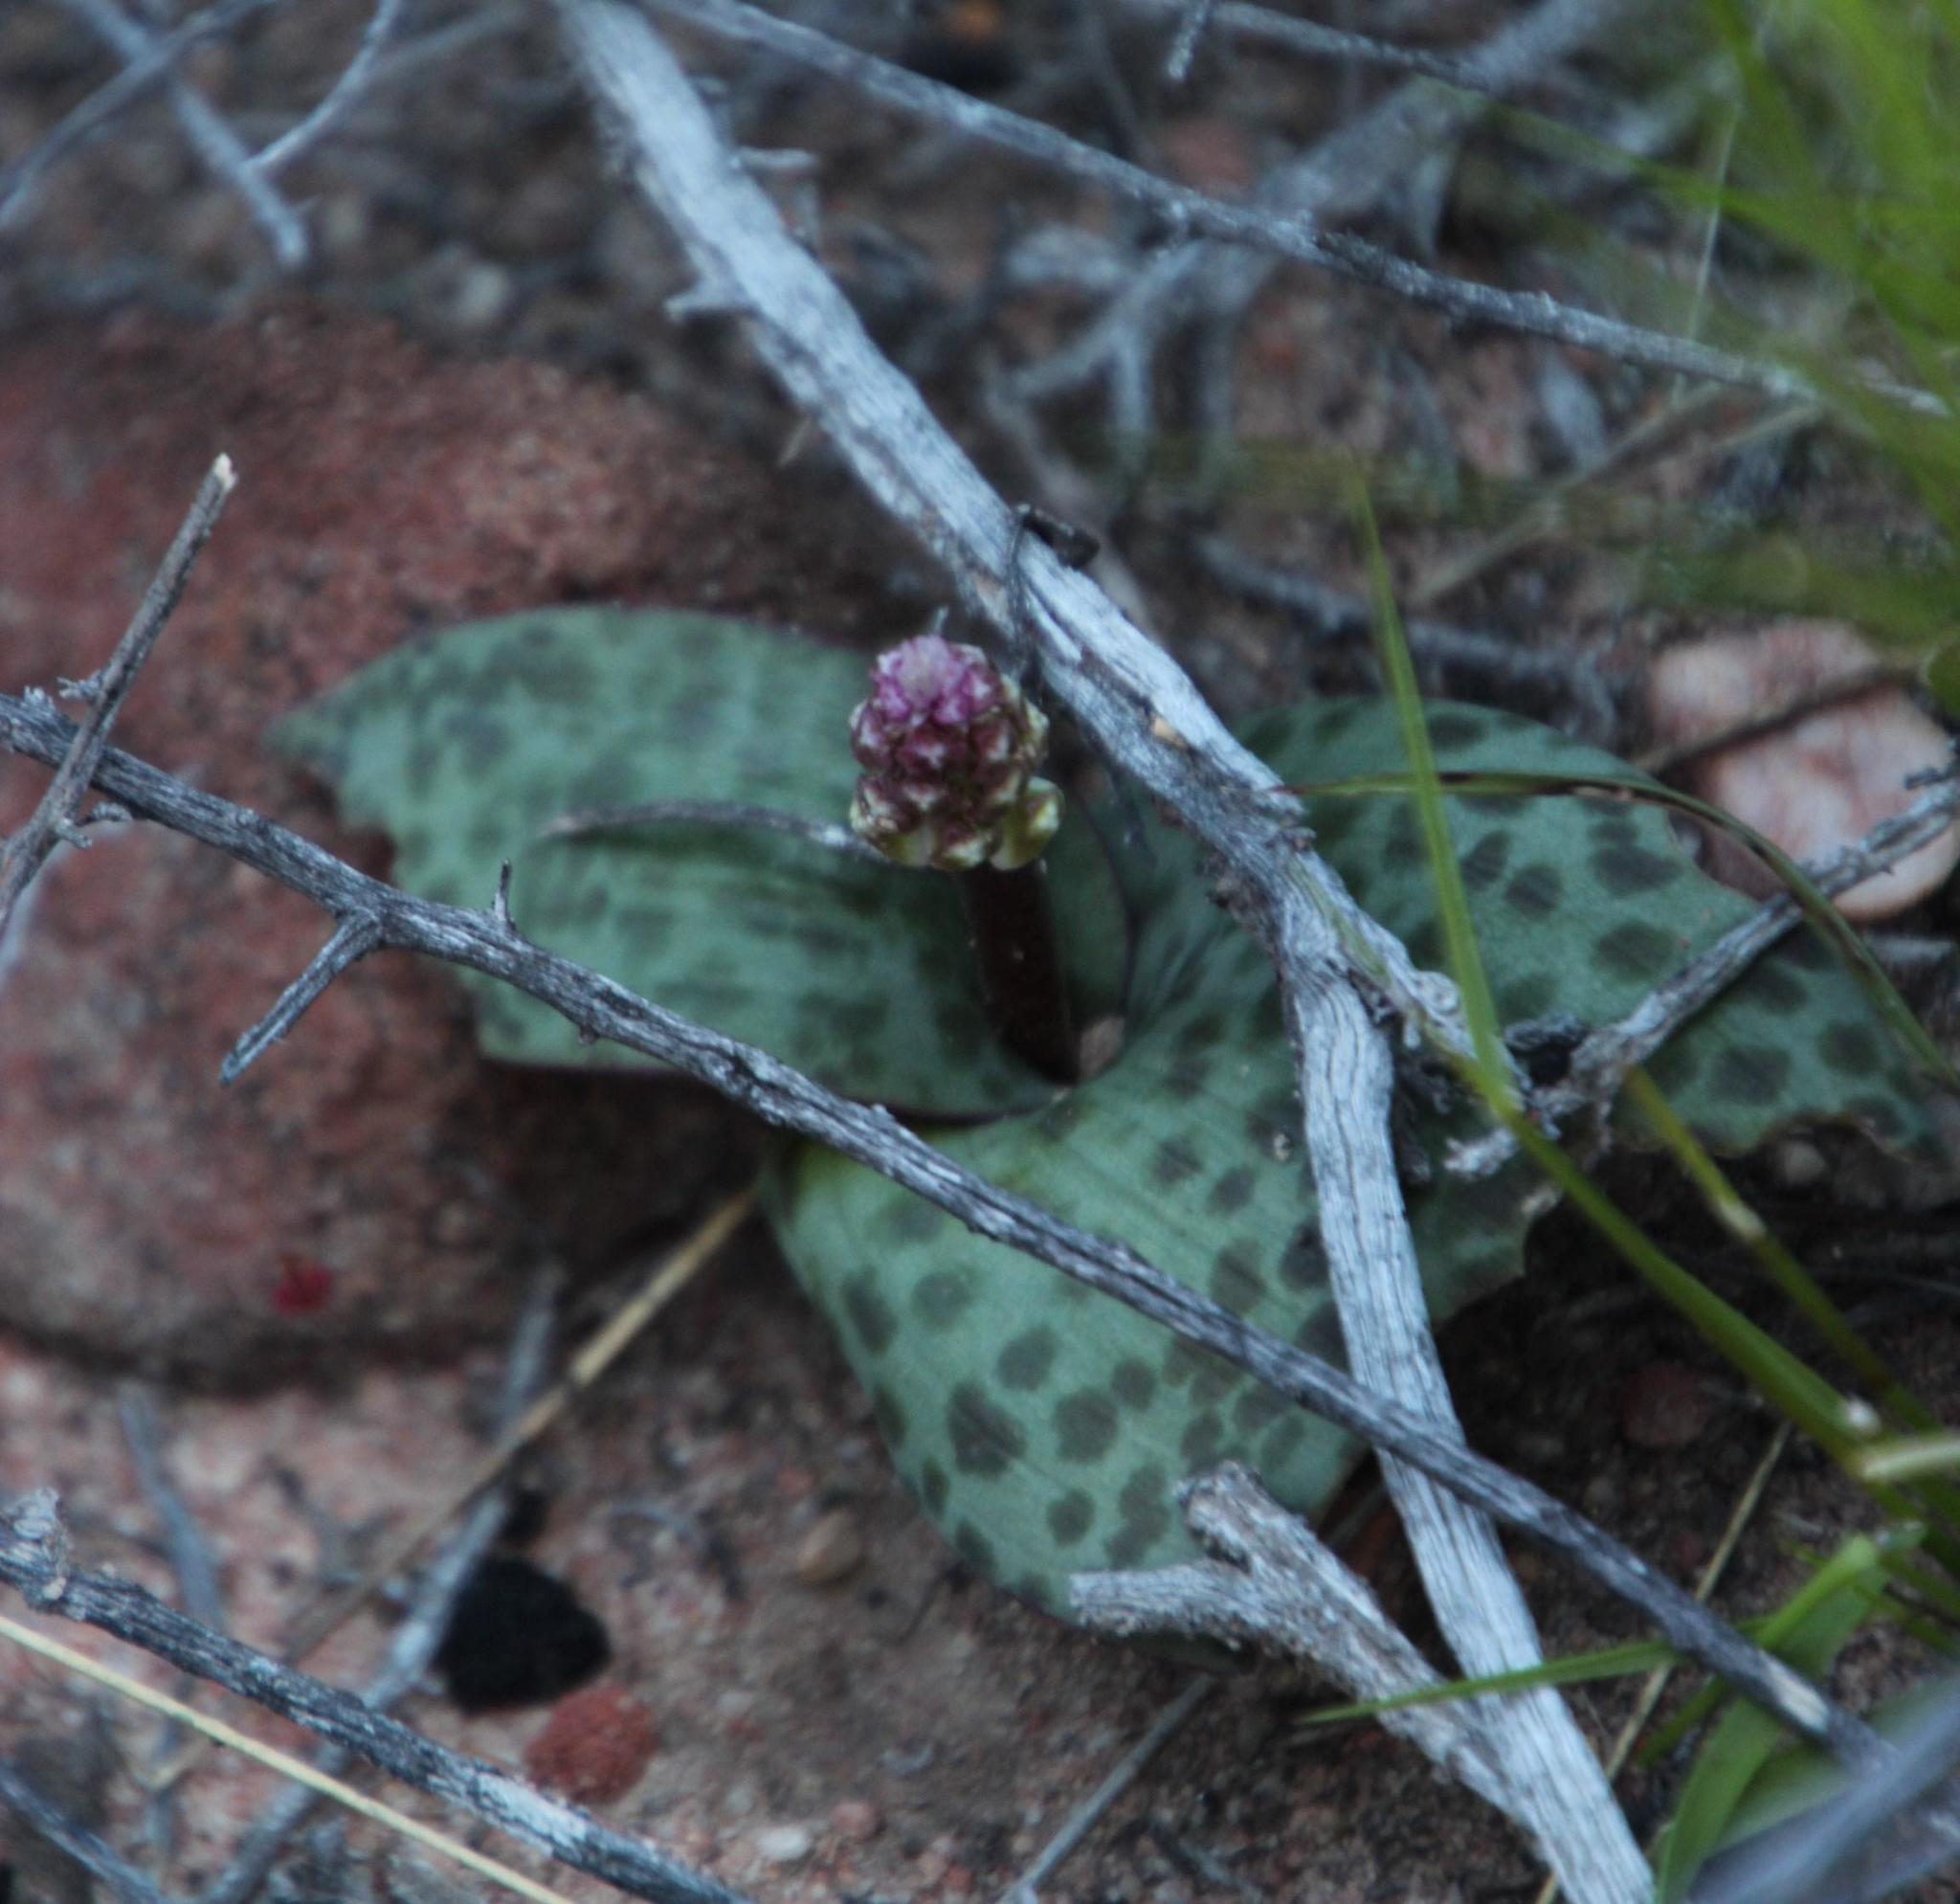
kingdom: Plantae
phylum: Tracheophyta
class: Liliopsida
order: Asparagales
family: Asparagaceae
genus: Lachenalia
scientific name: Lachenalia membranacea
